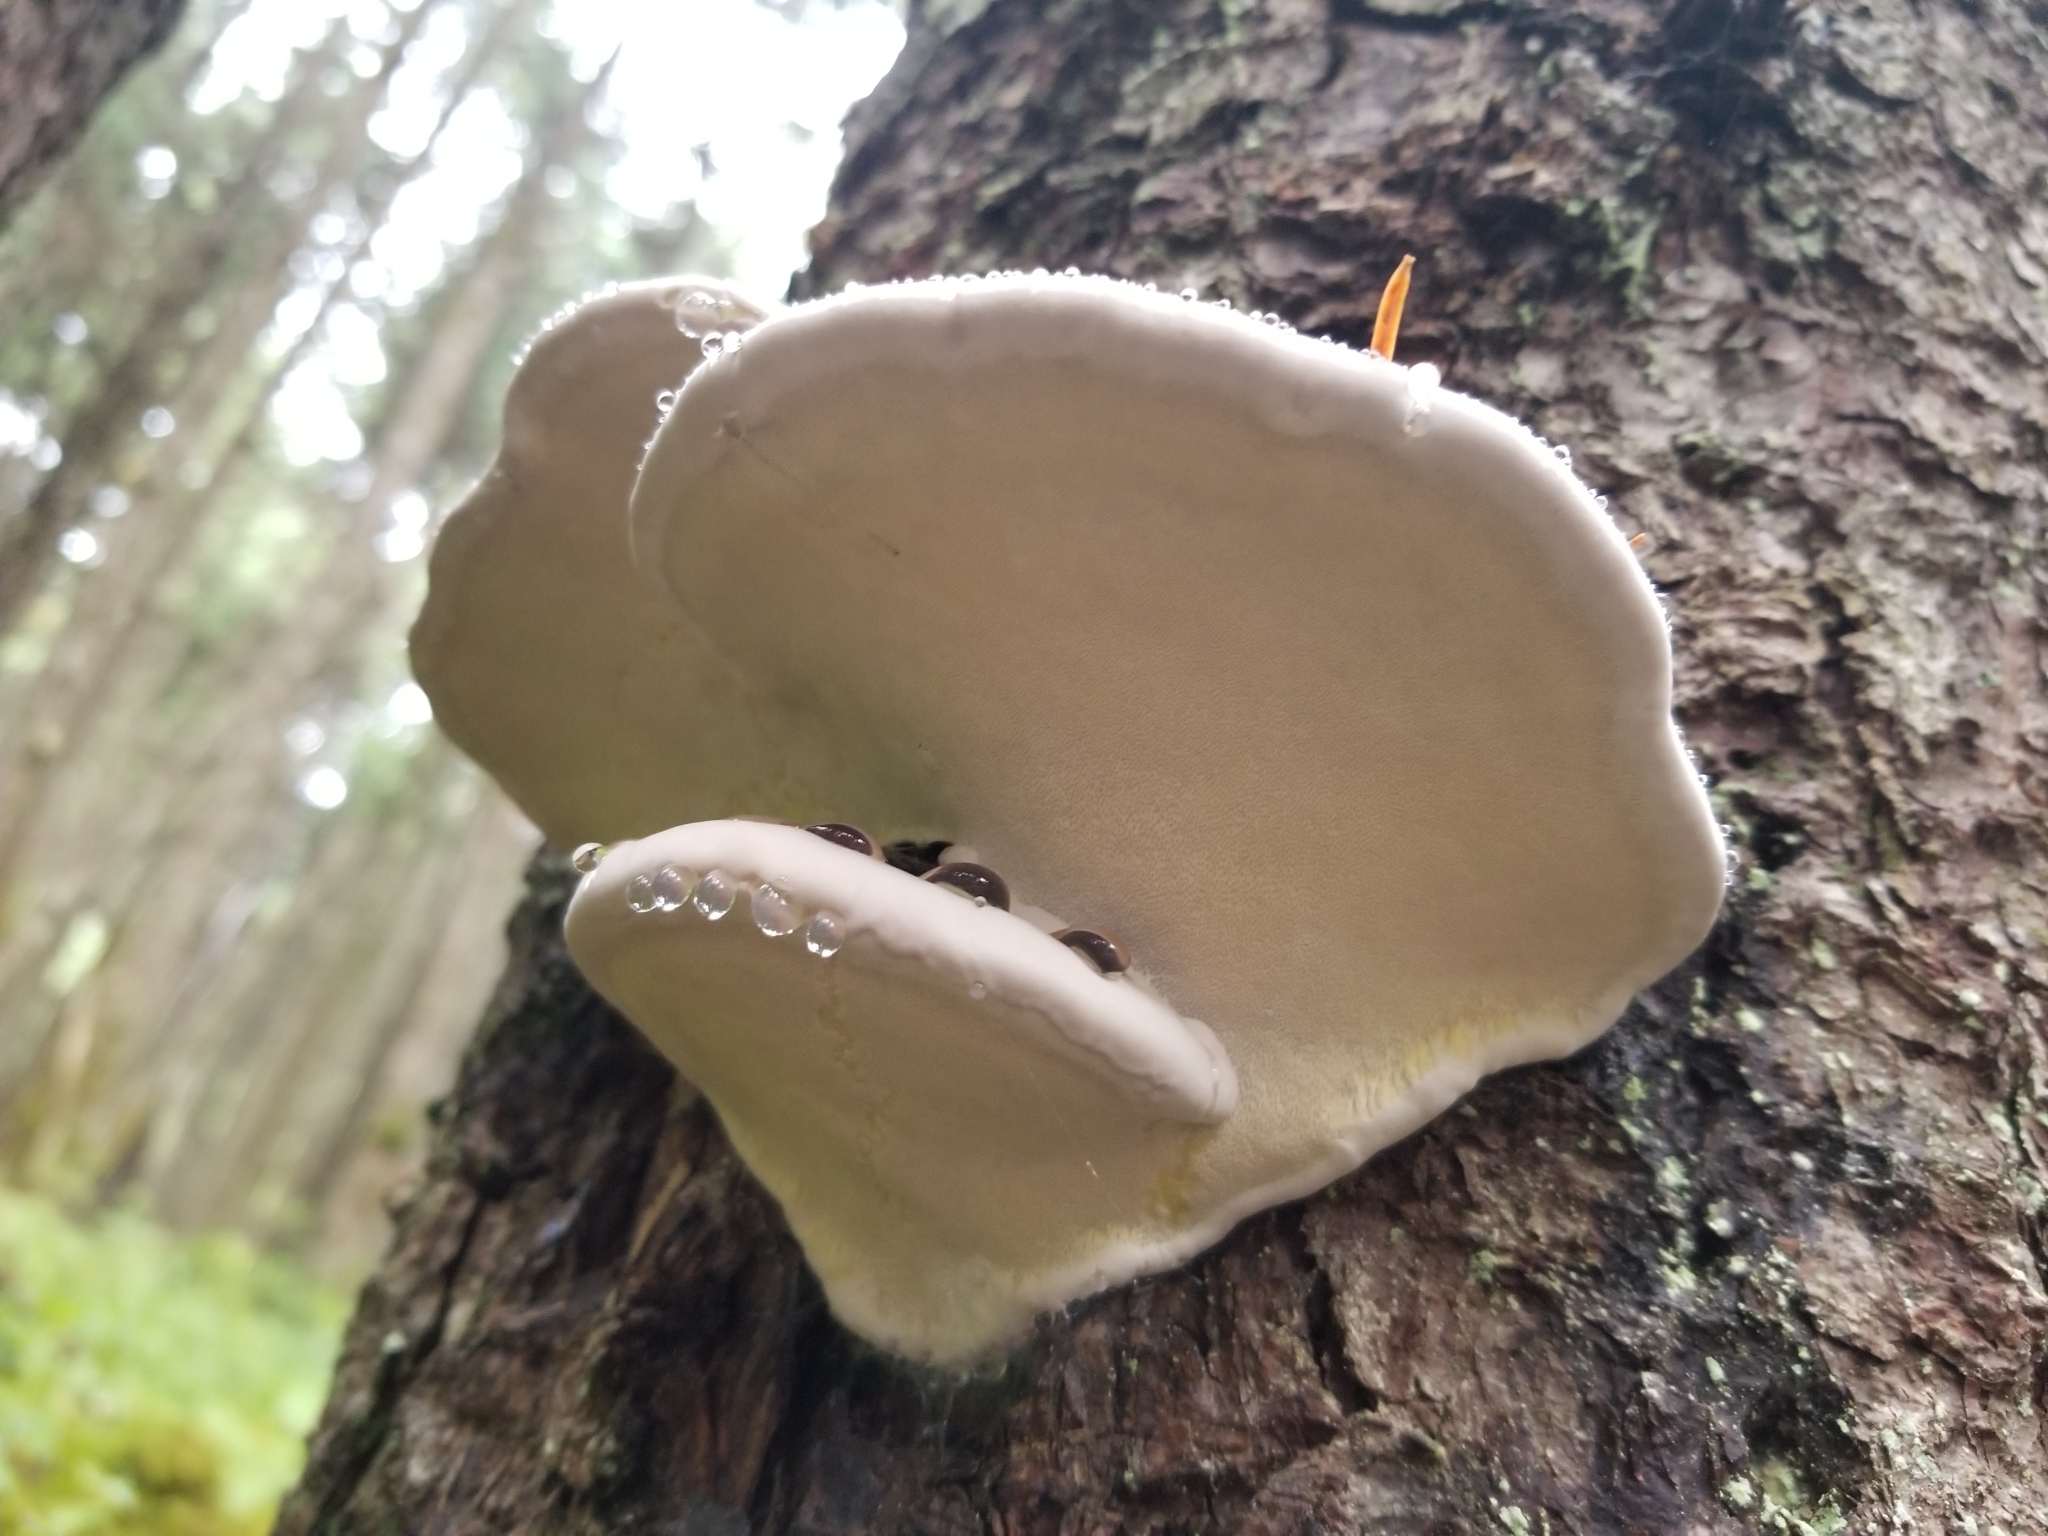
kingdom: Fungi
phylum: Basidiomycota
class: Agaricomycetes
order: Polyporales
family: Fomitopsidaceae
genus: Fomitopsis
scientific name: Fomitopsis mounceae
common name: Northern red belt
